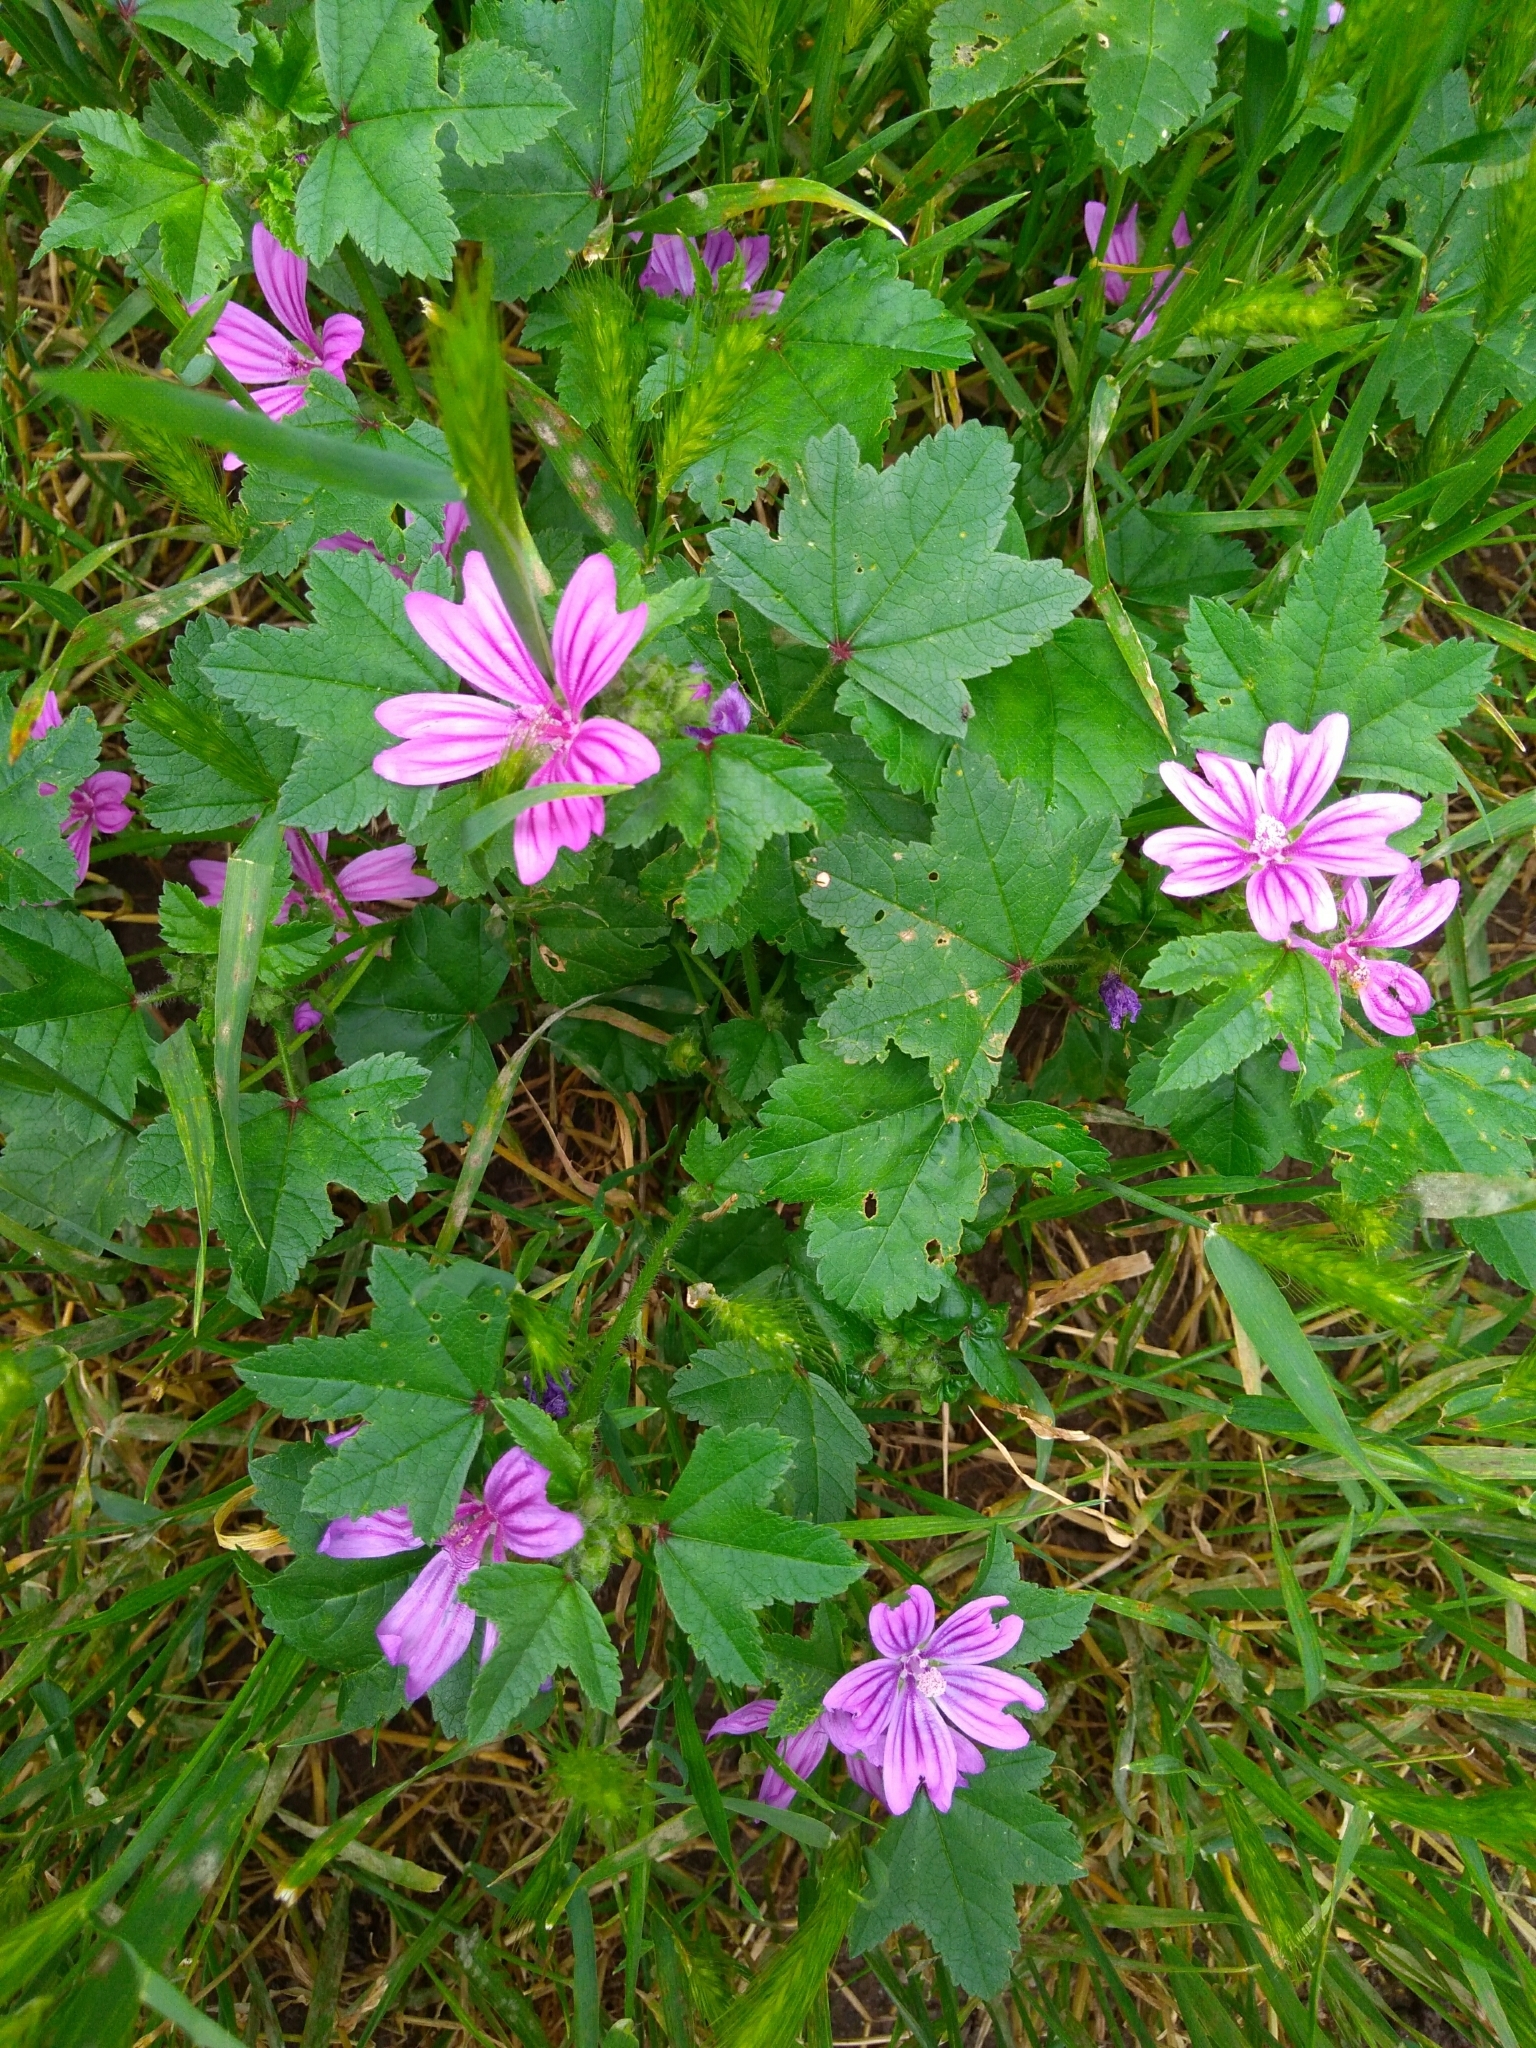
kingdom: Plantae
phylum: Tracheophyta
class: Magnoliopsida
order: Malvales
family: Malvaceae
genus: Malva
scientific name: Malva sylvestris
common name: Common mallow
